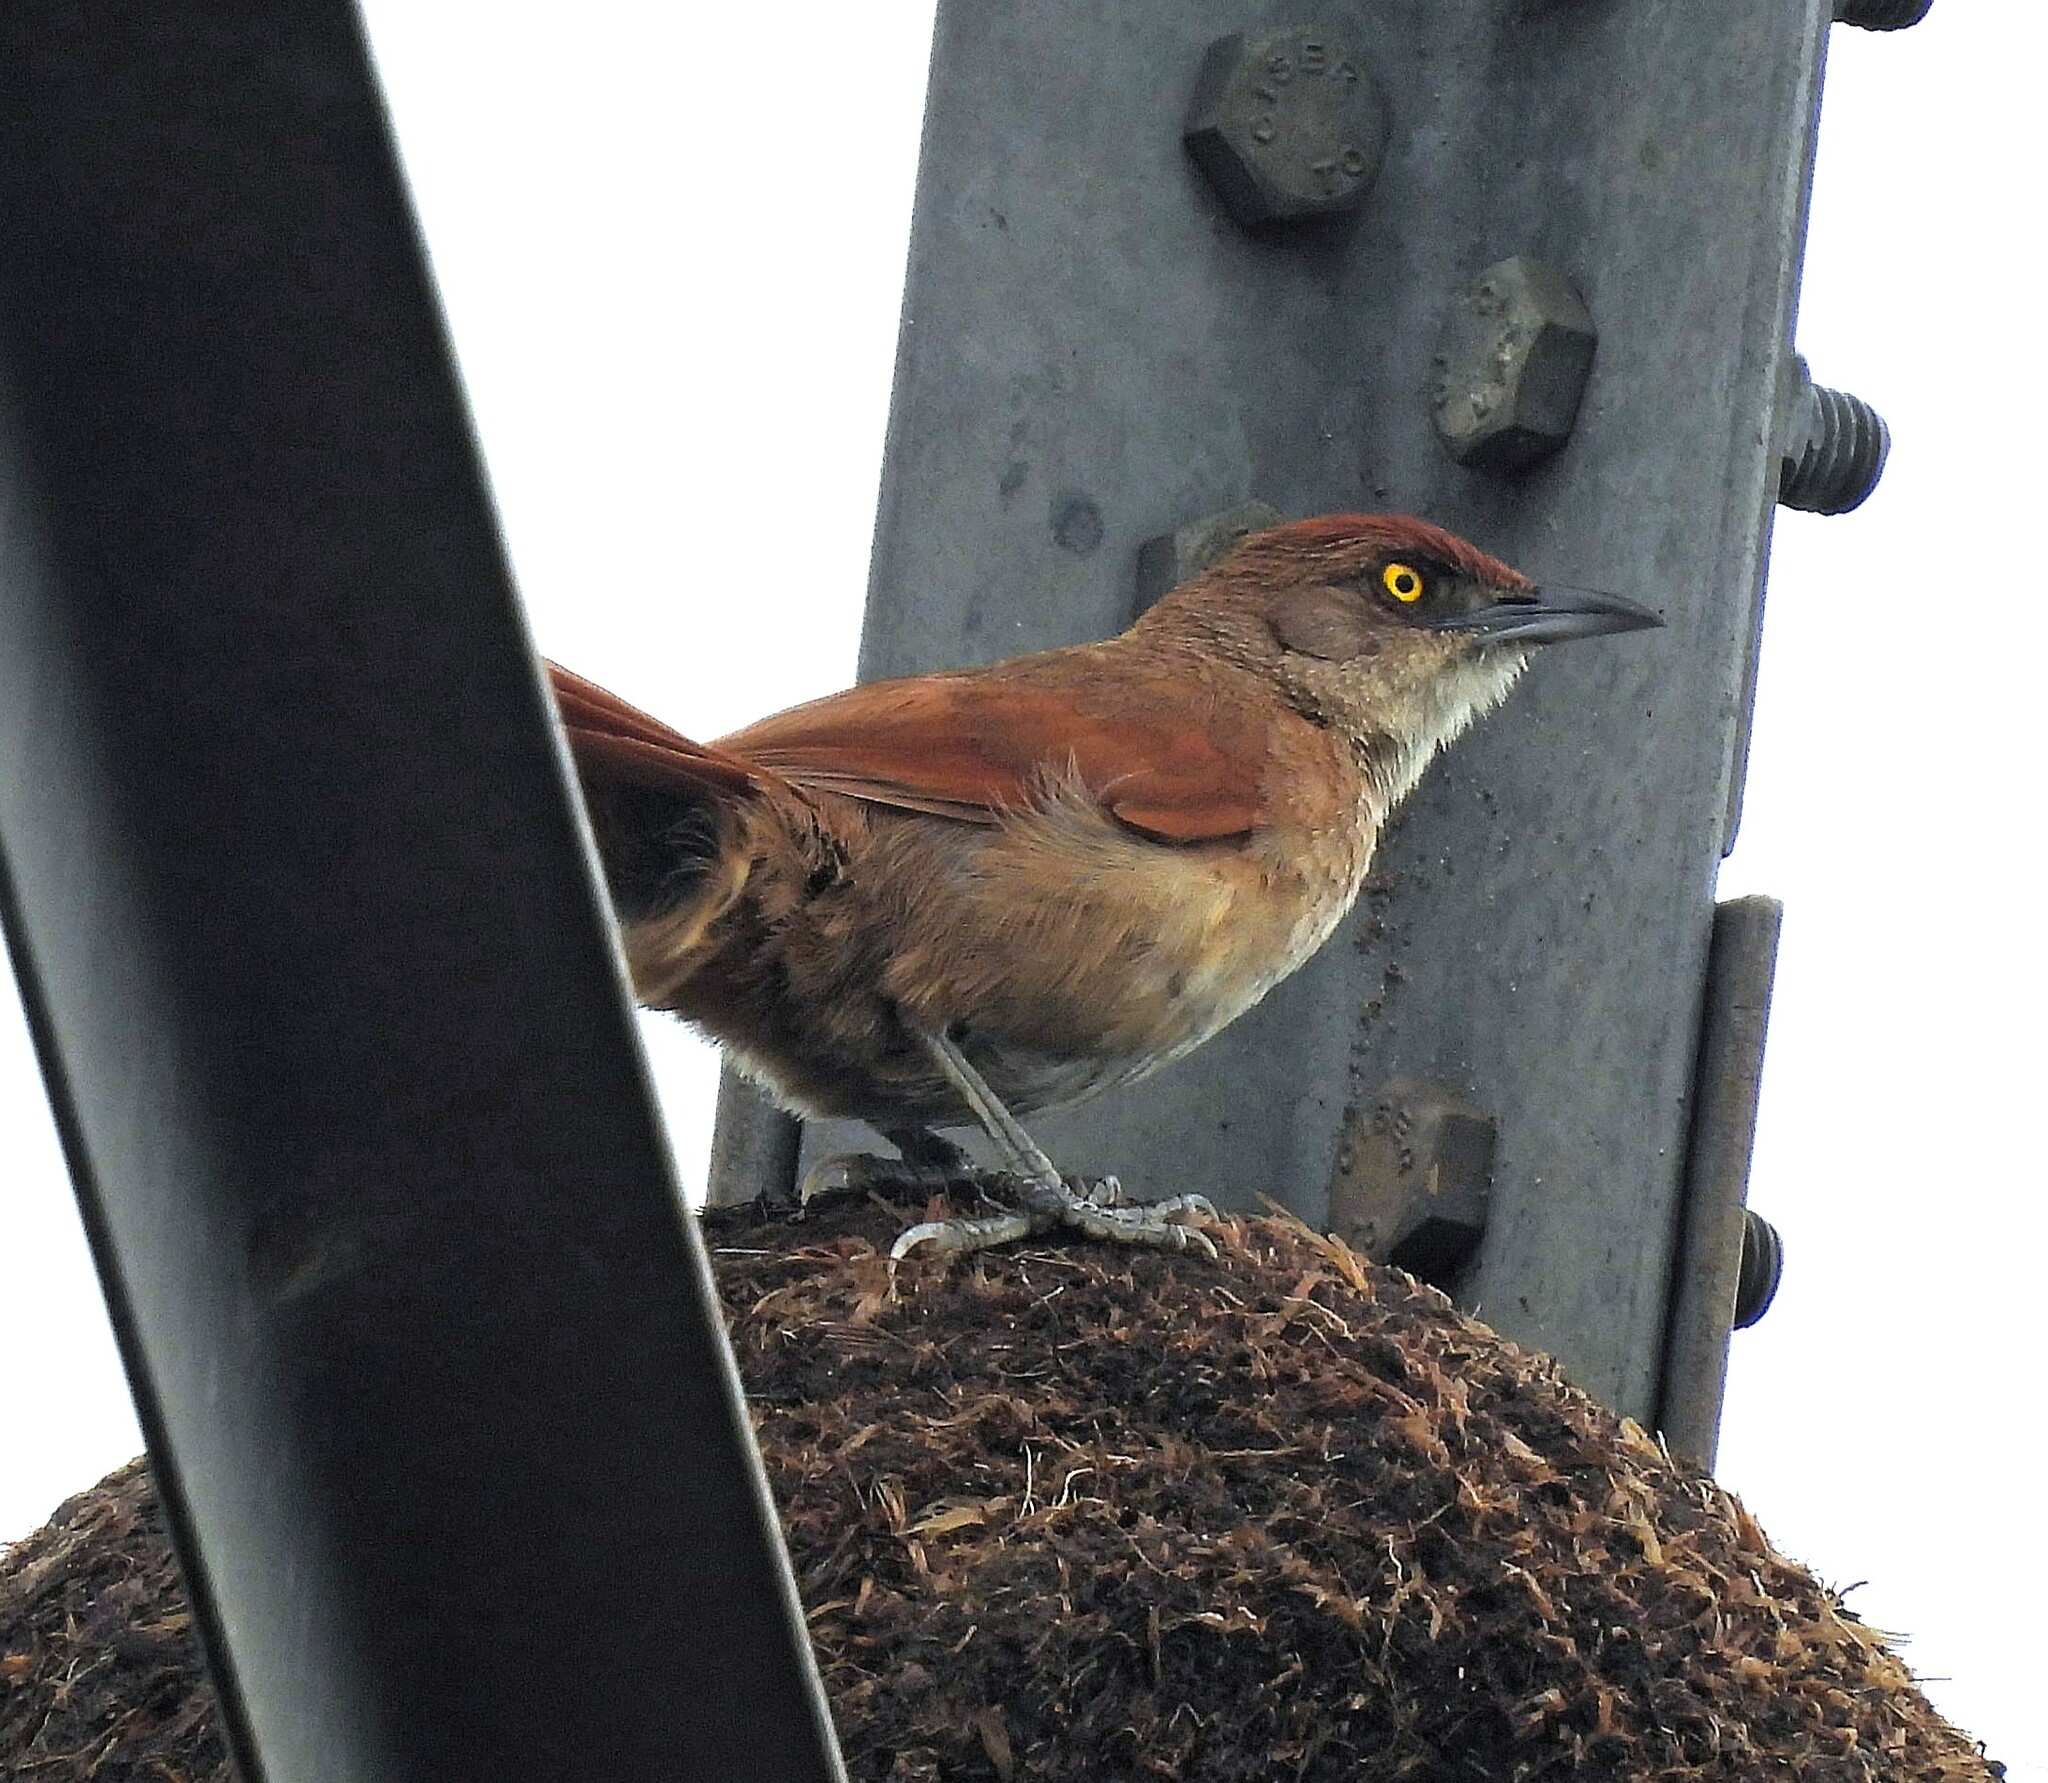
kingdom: Animalia
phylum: Chordata
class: Aves
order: Passeriformes
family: Furnariidae
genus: Phacellodomus
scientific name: Phacellodomus ruber
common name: Greater thornbird
